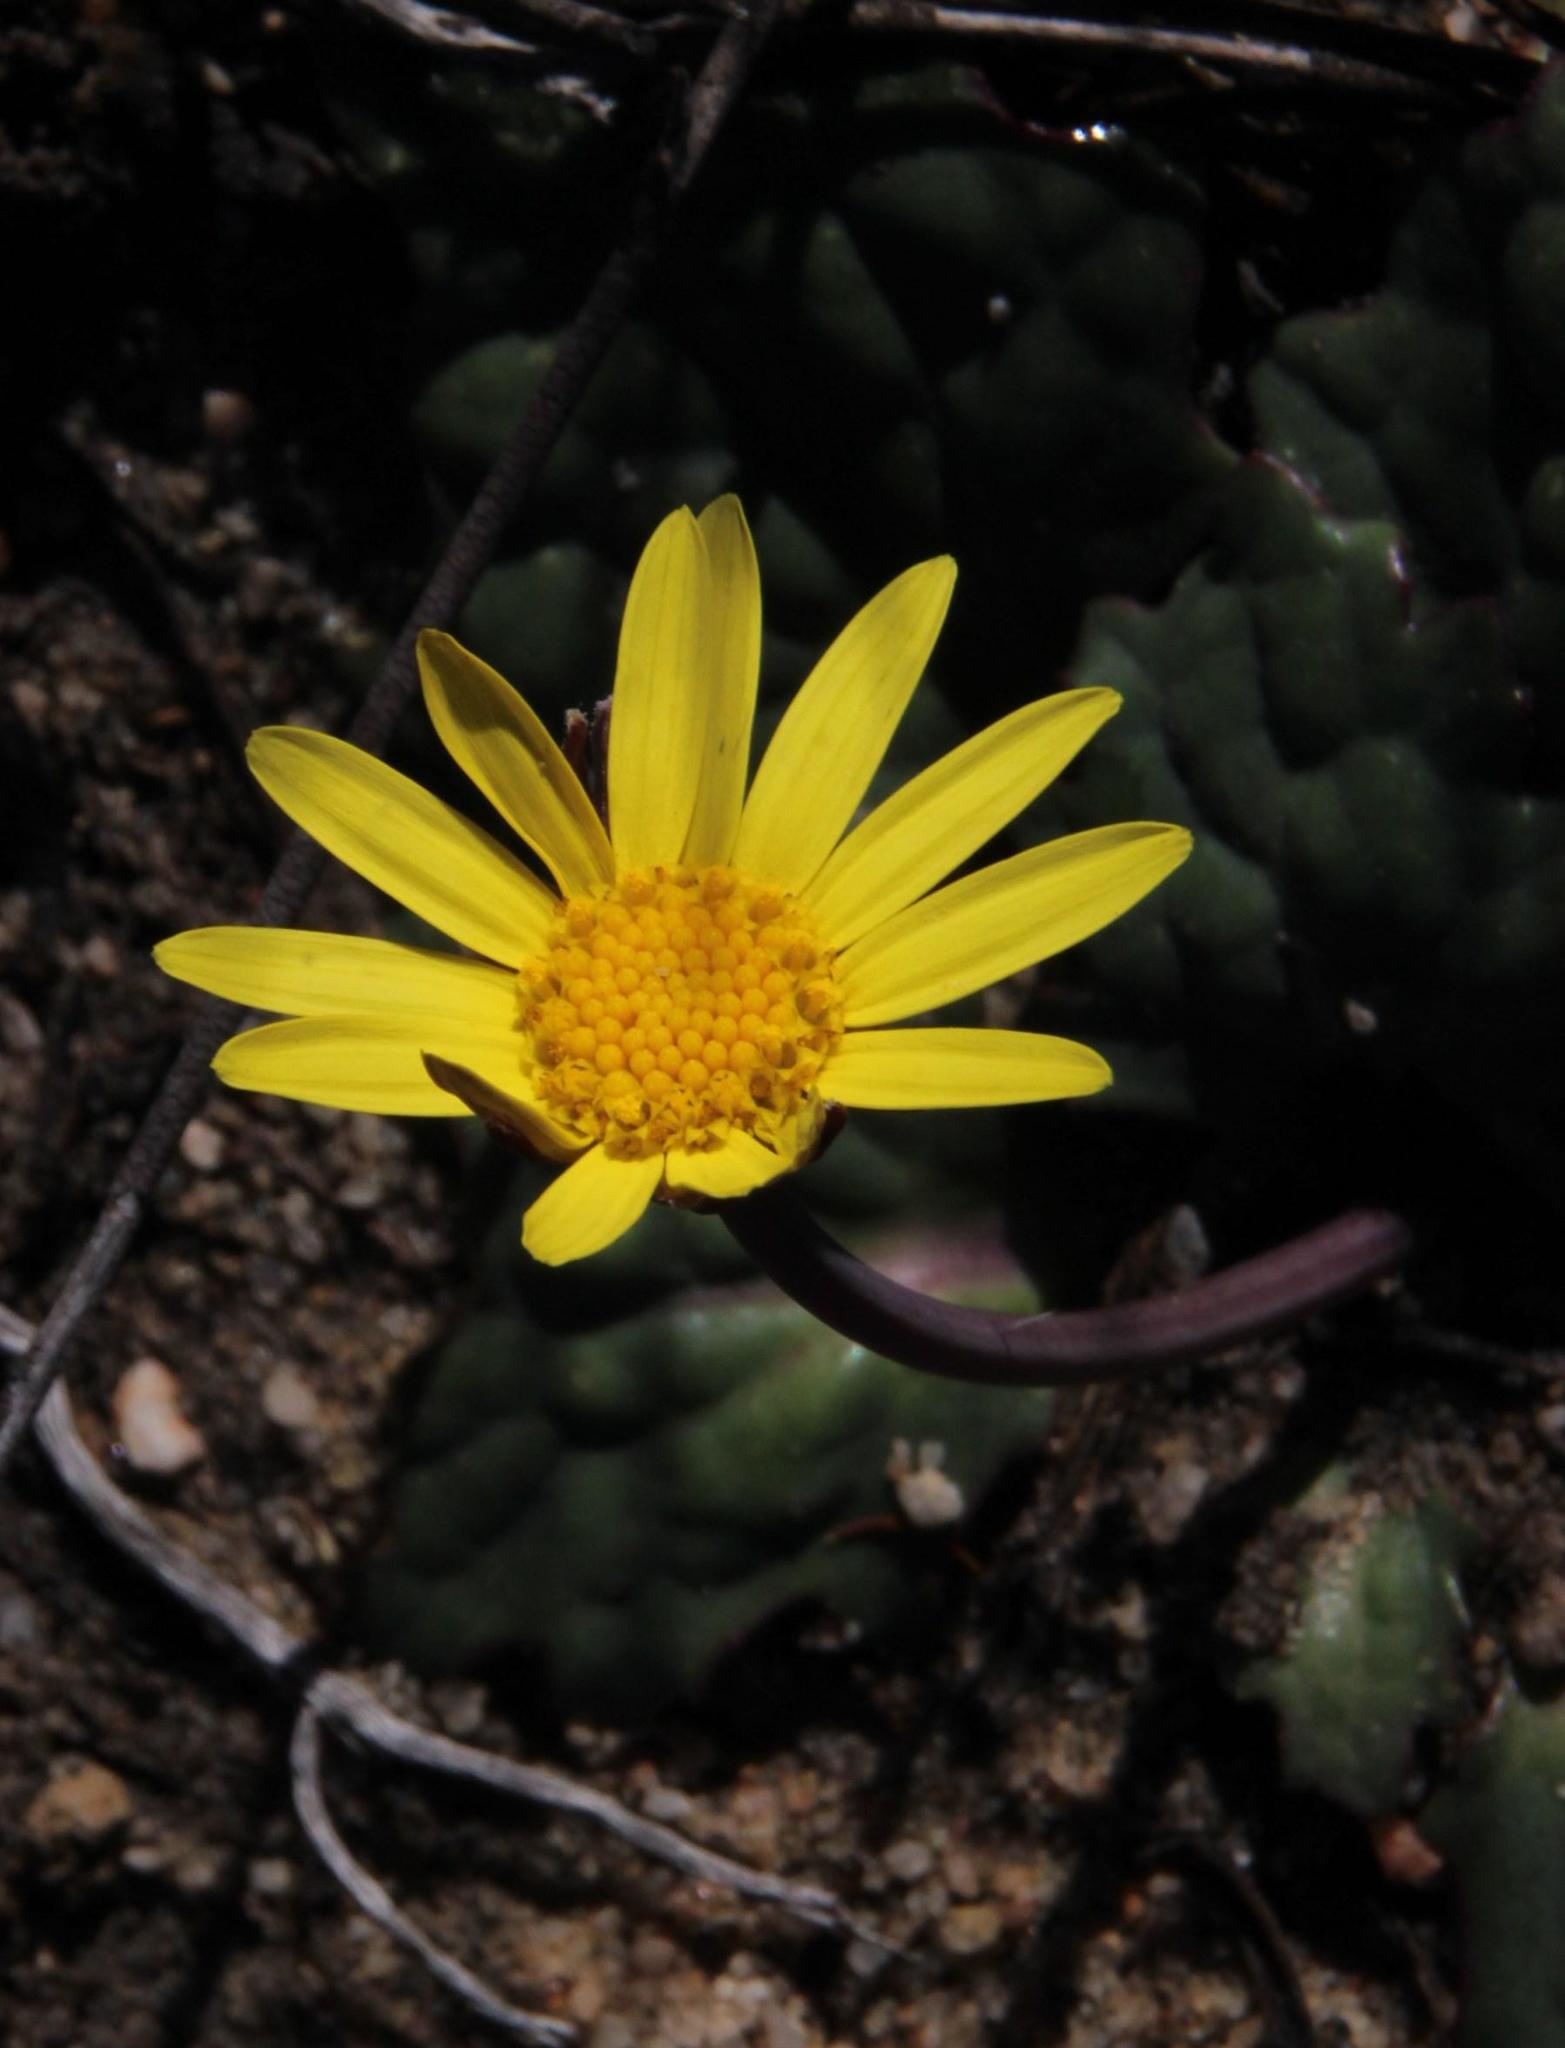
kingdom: Plantae
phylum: Tracheophyta
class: Magnoliopsida
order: Asterales
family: Asteraceae
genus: Othonna
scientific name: Othonna oleracea
